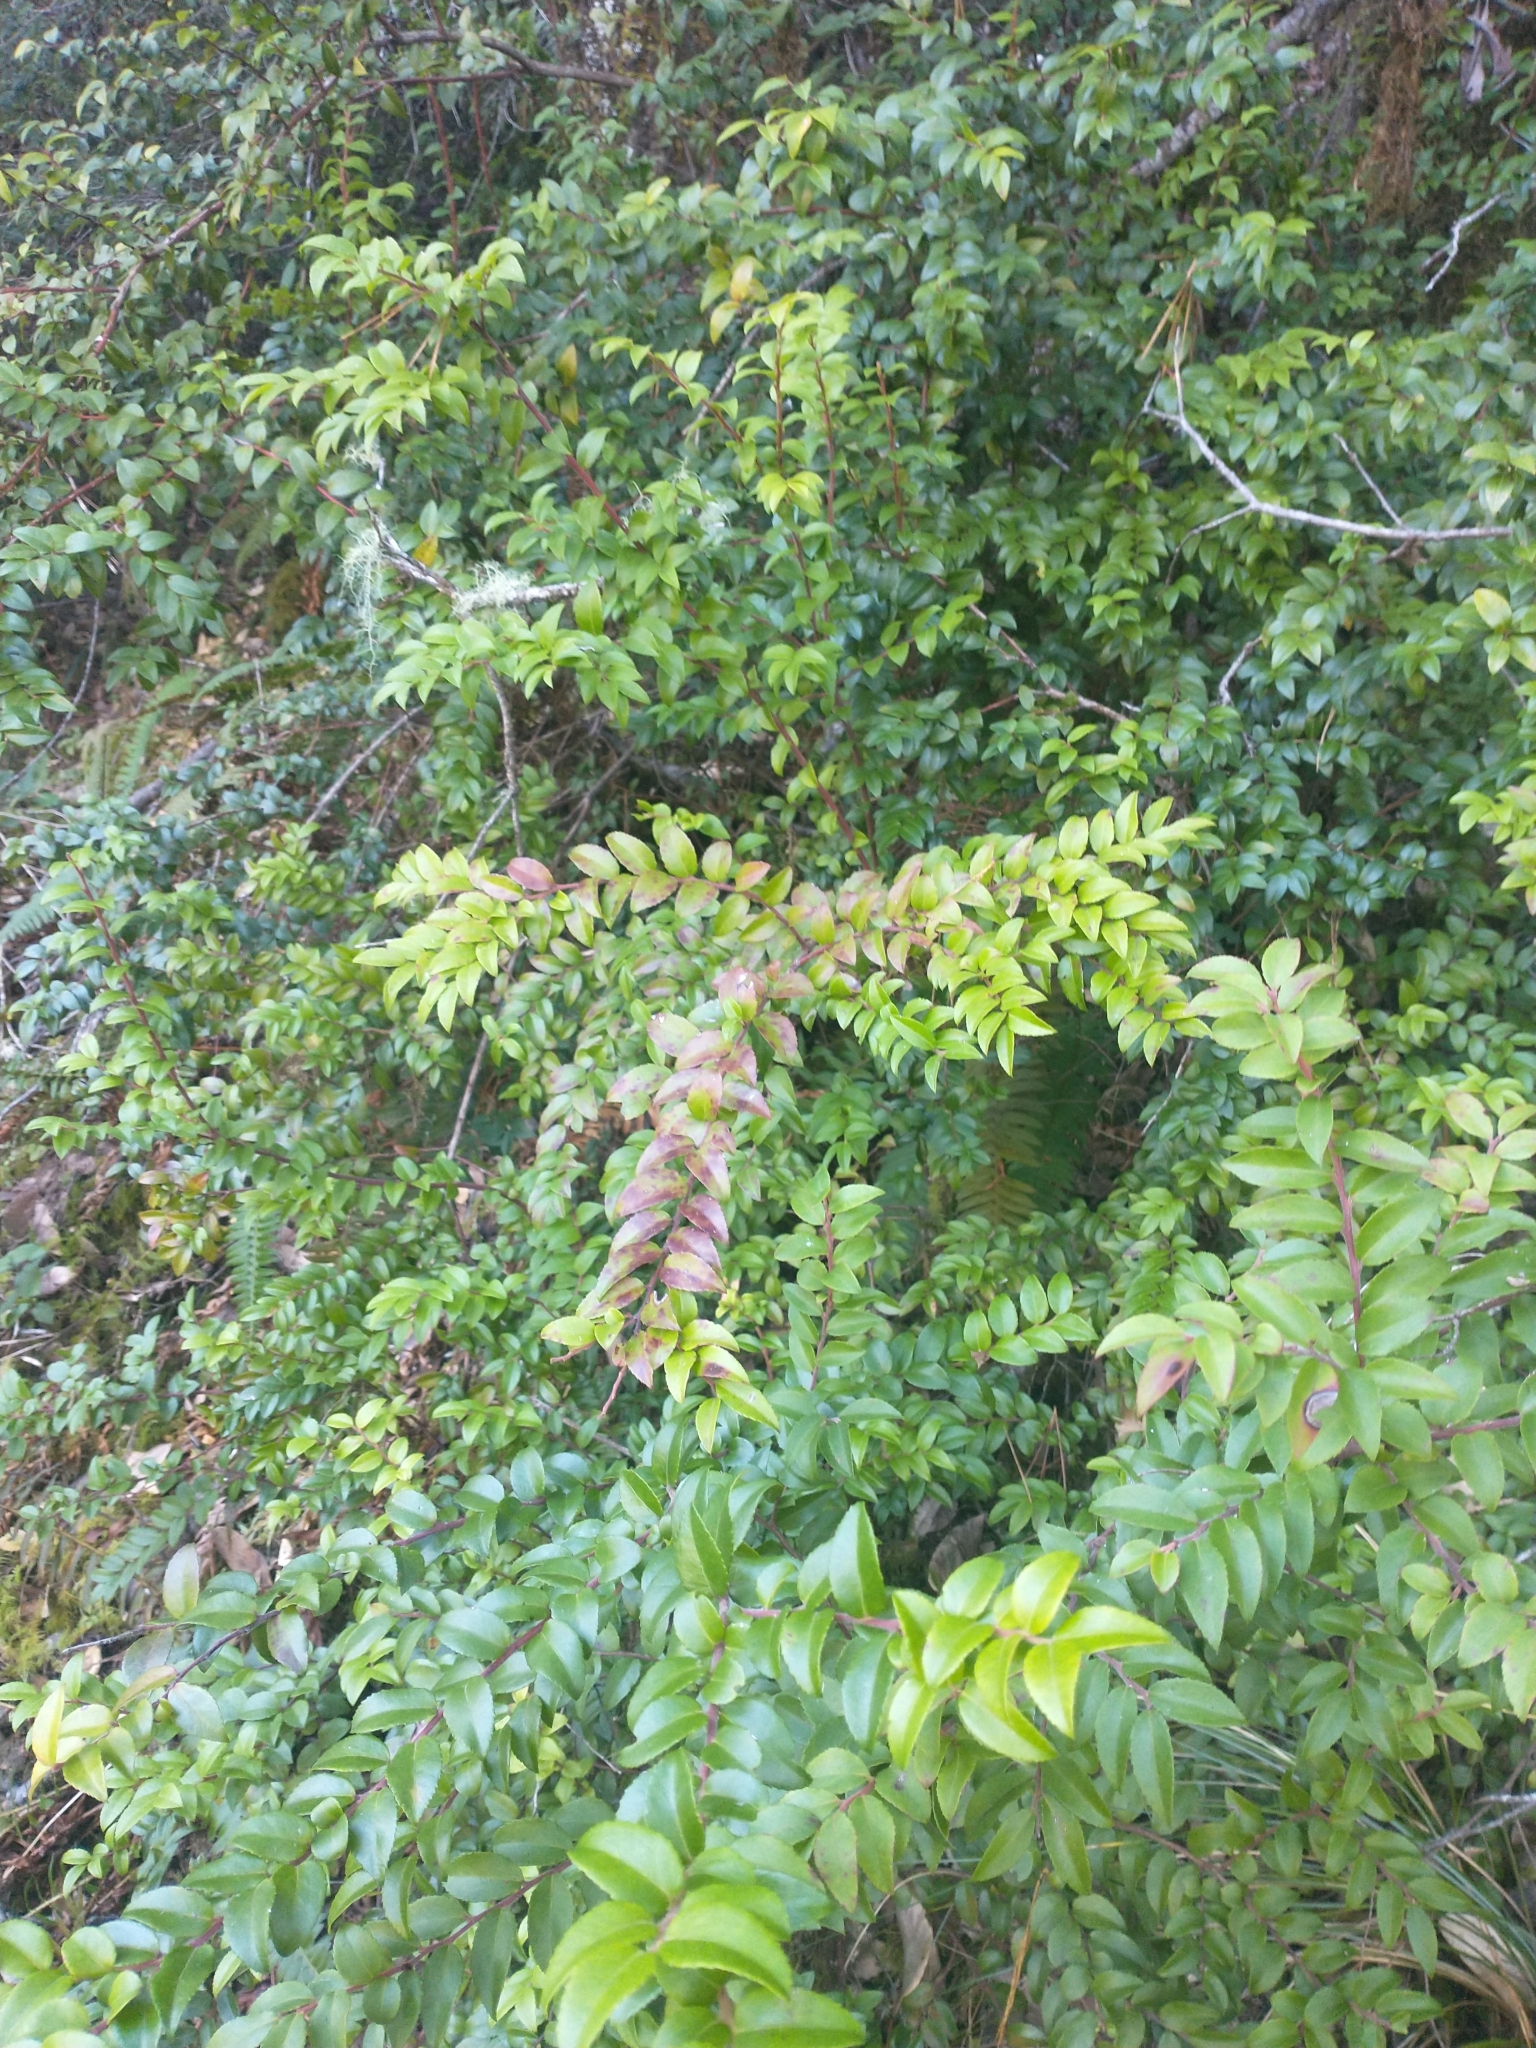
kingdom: Plantae
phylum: Tracheophyta
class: Magnoliopsida
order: Ericales
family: Ericaceae
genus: Vaccinium
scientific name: Vaccinium ovatum
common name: California-huckleberry
